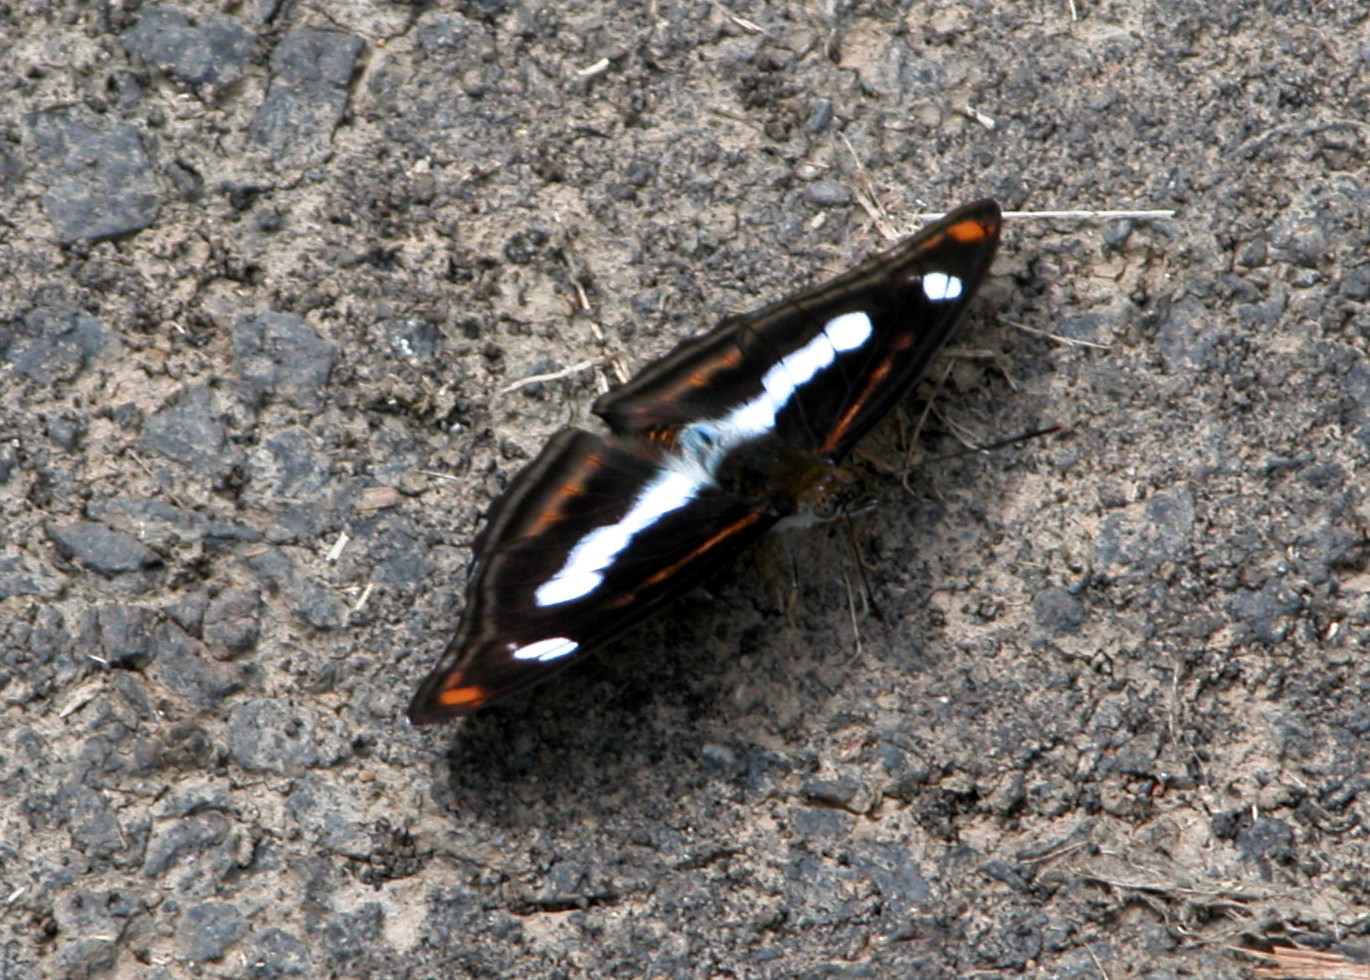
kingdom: Animalia
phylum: Arthropoda
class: Insecta
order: Lepidoptera
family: Nymphalidae
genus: Pantoporia
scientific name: Pantoporia cama
